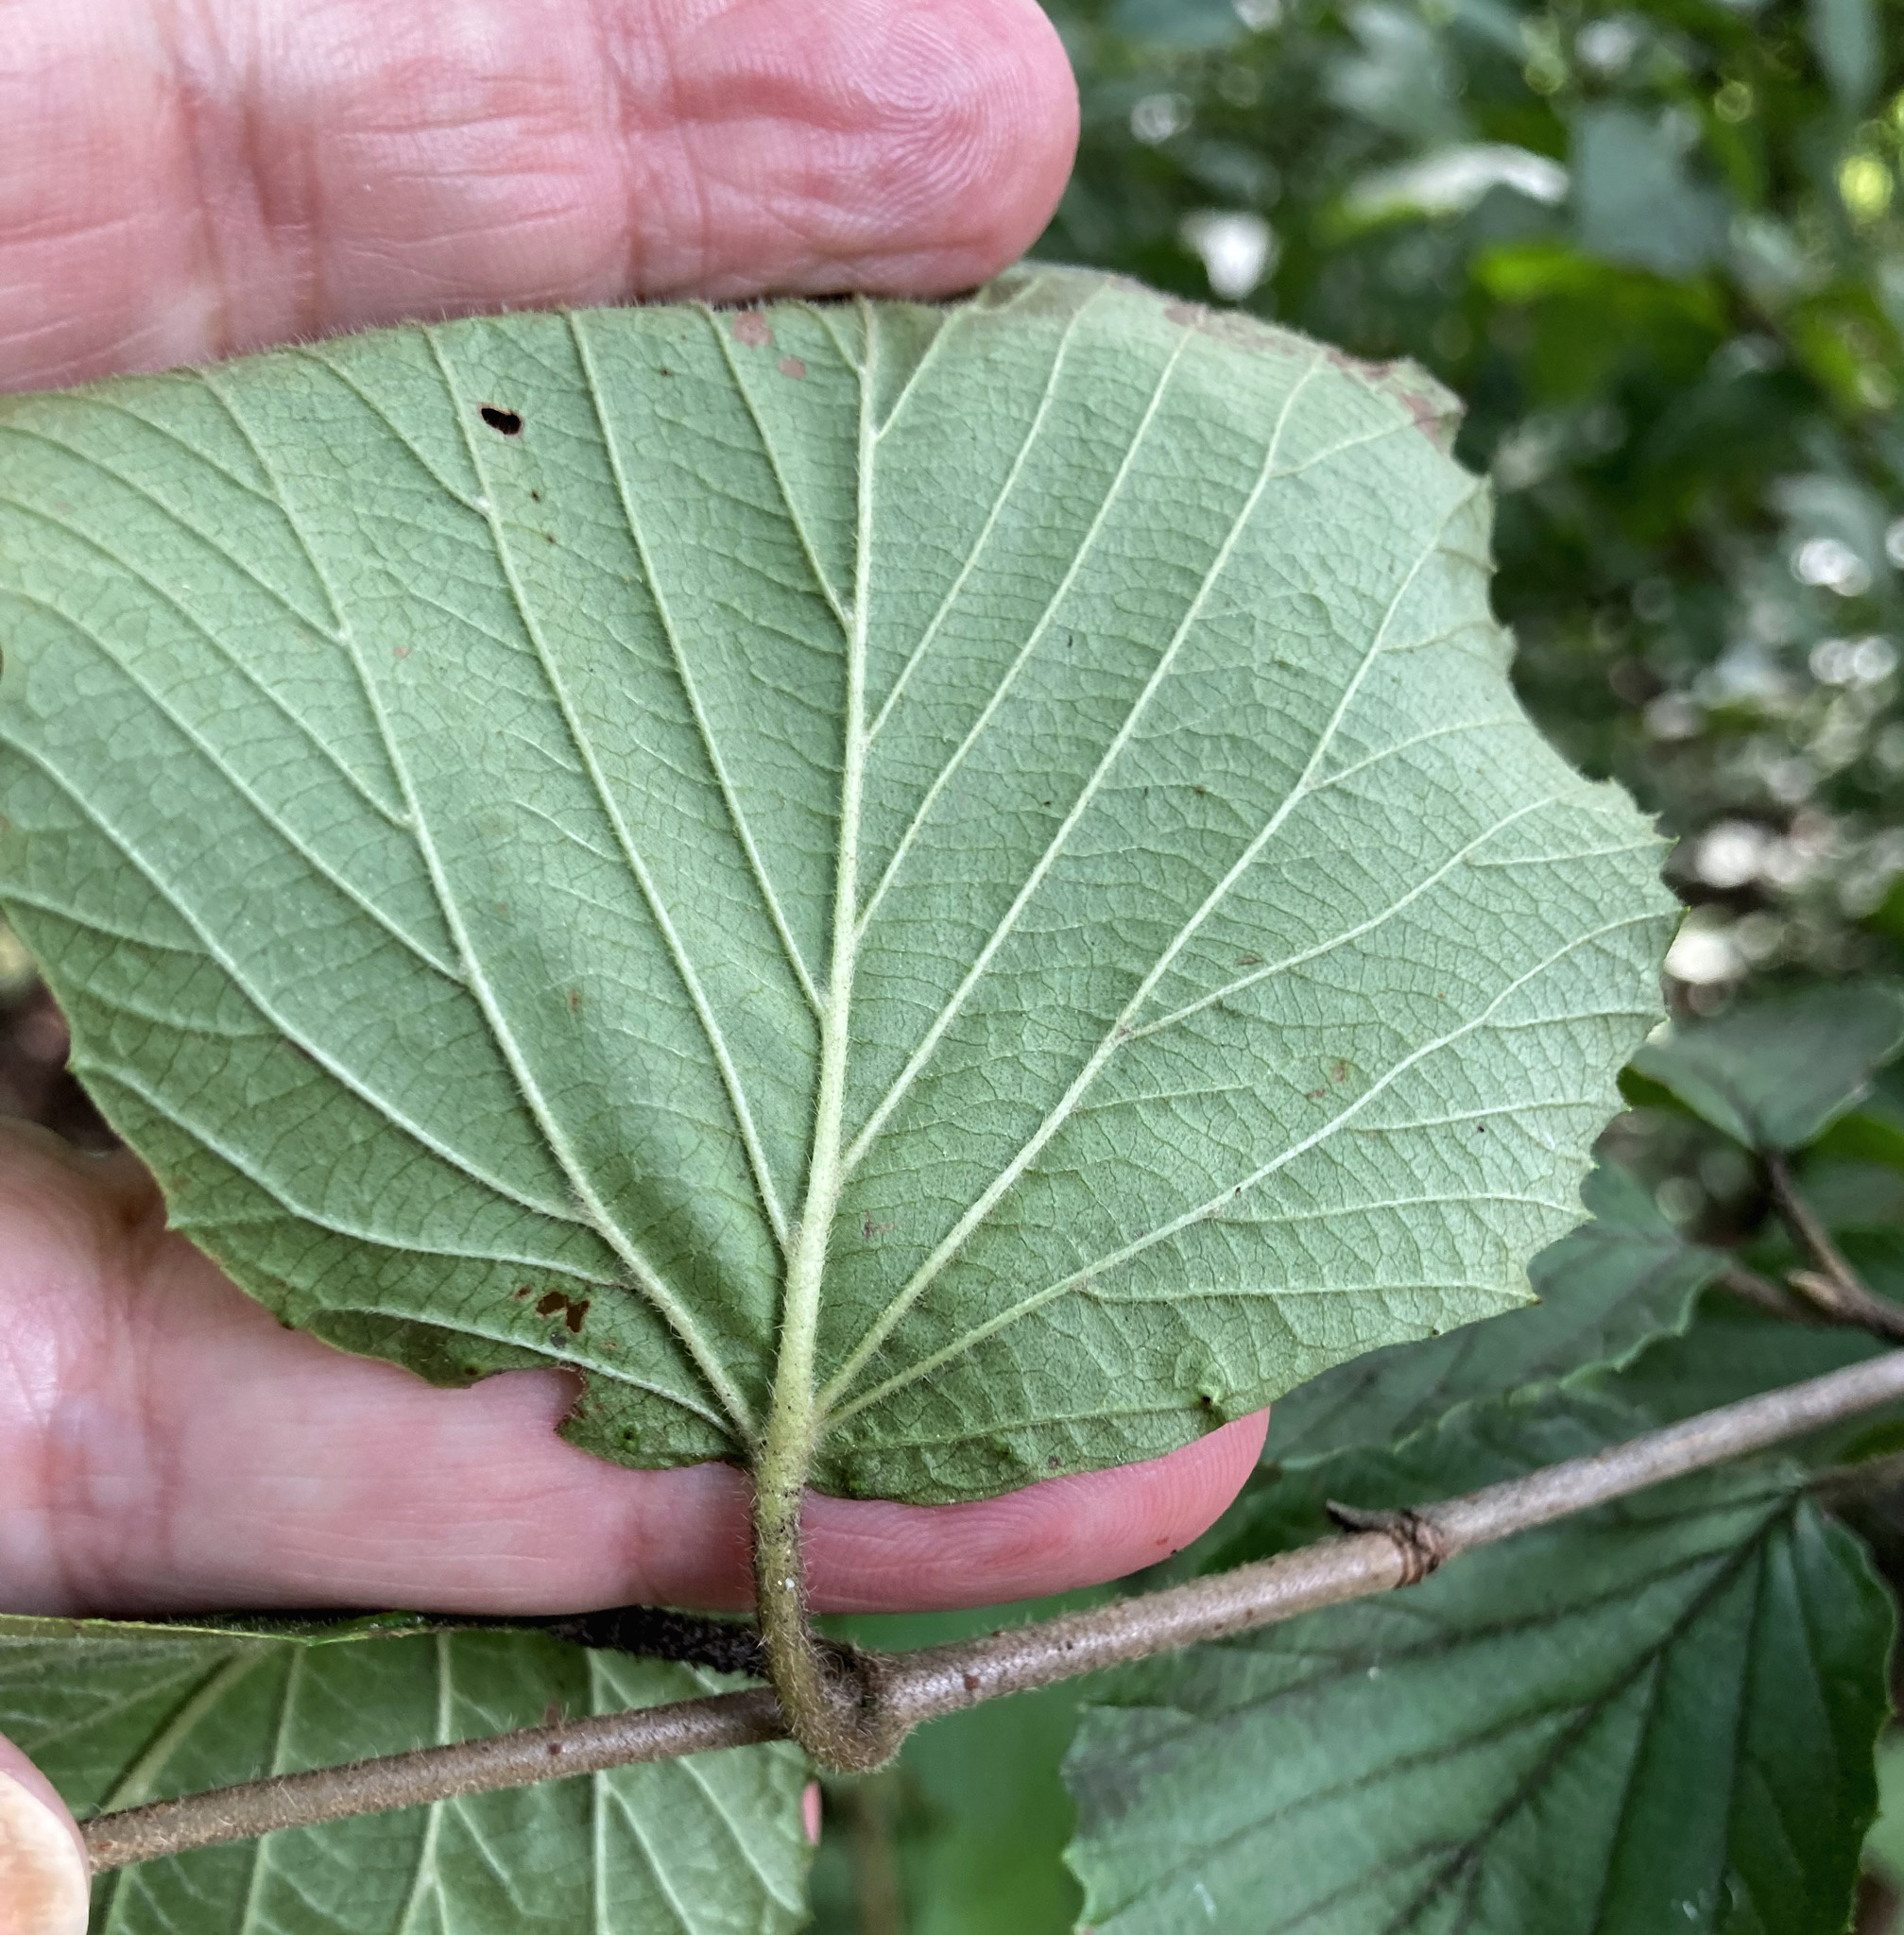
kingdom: Plantae
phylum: Tracheophyta
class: Magnoliopsida
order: Dipsacales
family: Viburnaceae
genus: Viburnum
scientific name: Viburnum dilatatum
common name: Linden arrowwood
